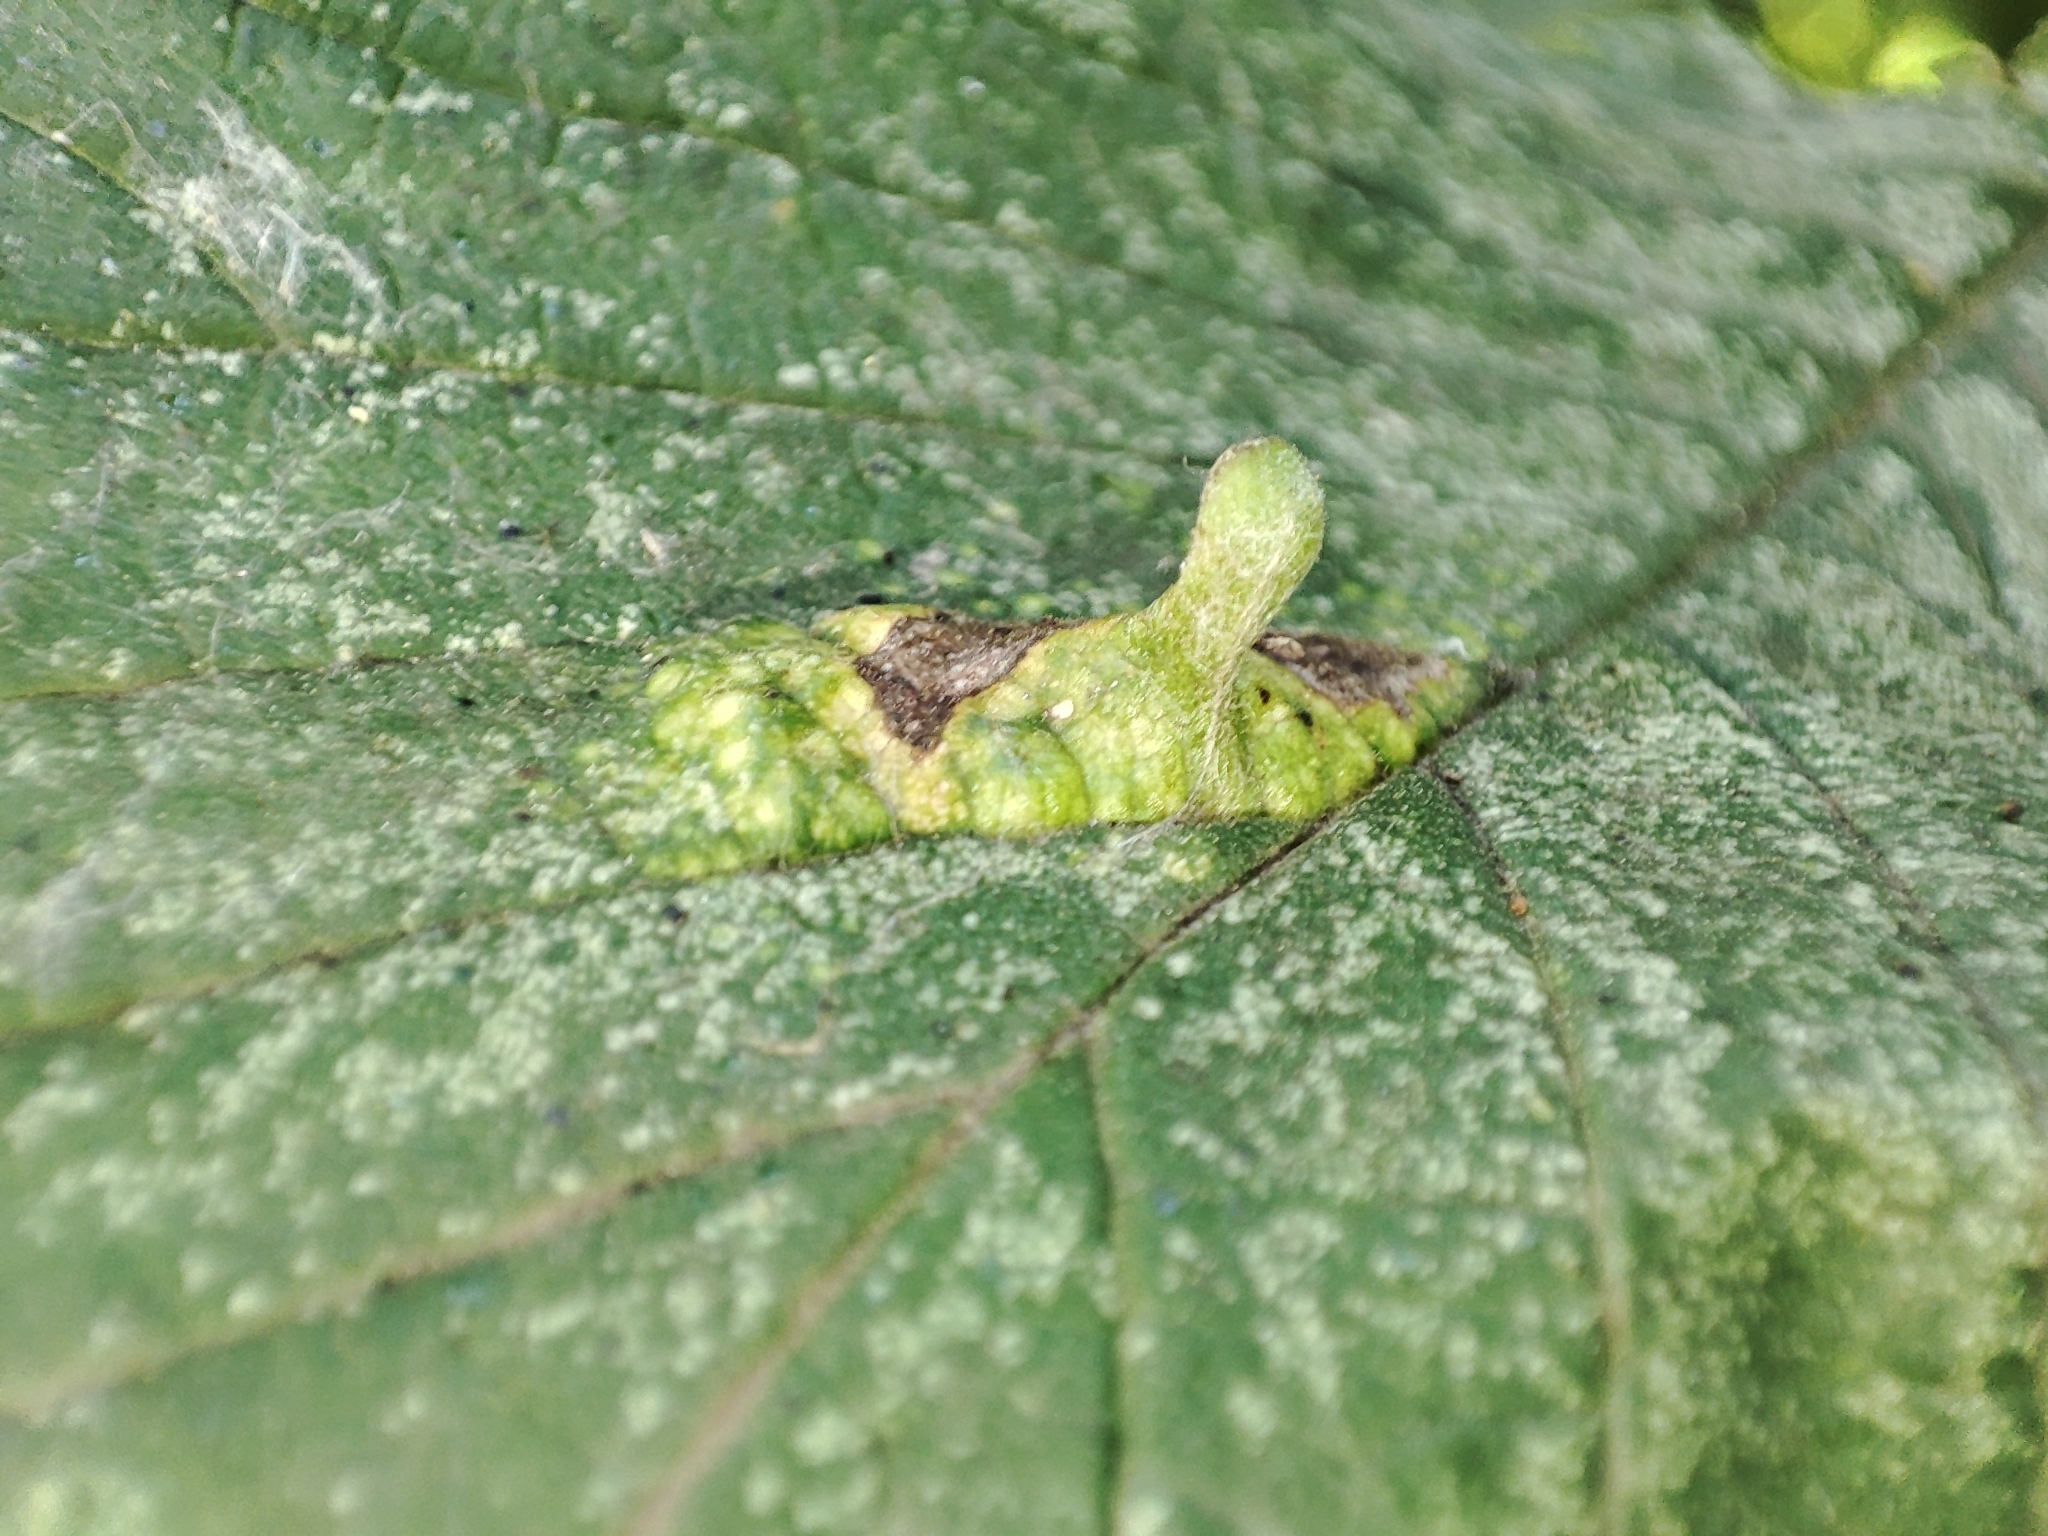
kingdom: Animalia
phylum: Arthropoda
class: Insecta
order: Hemiptera
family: Aphididae
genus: Tetraneura
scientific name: Tetraneura nigriabdominalis
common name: Aphid
